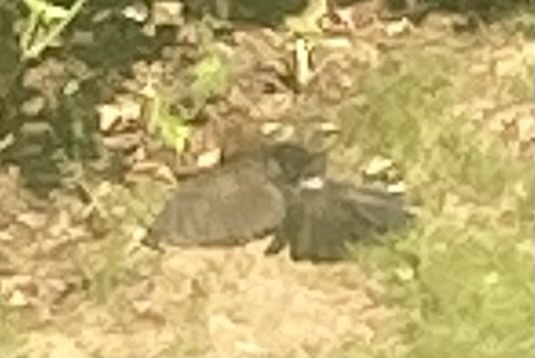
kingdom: Animalia
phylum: Chordata
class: Aves
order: Passeriformes
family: Turdidae
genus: Turdus
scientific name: Turdus merula
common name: Common blackbird
